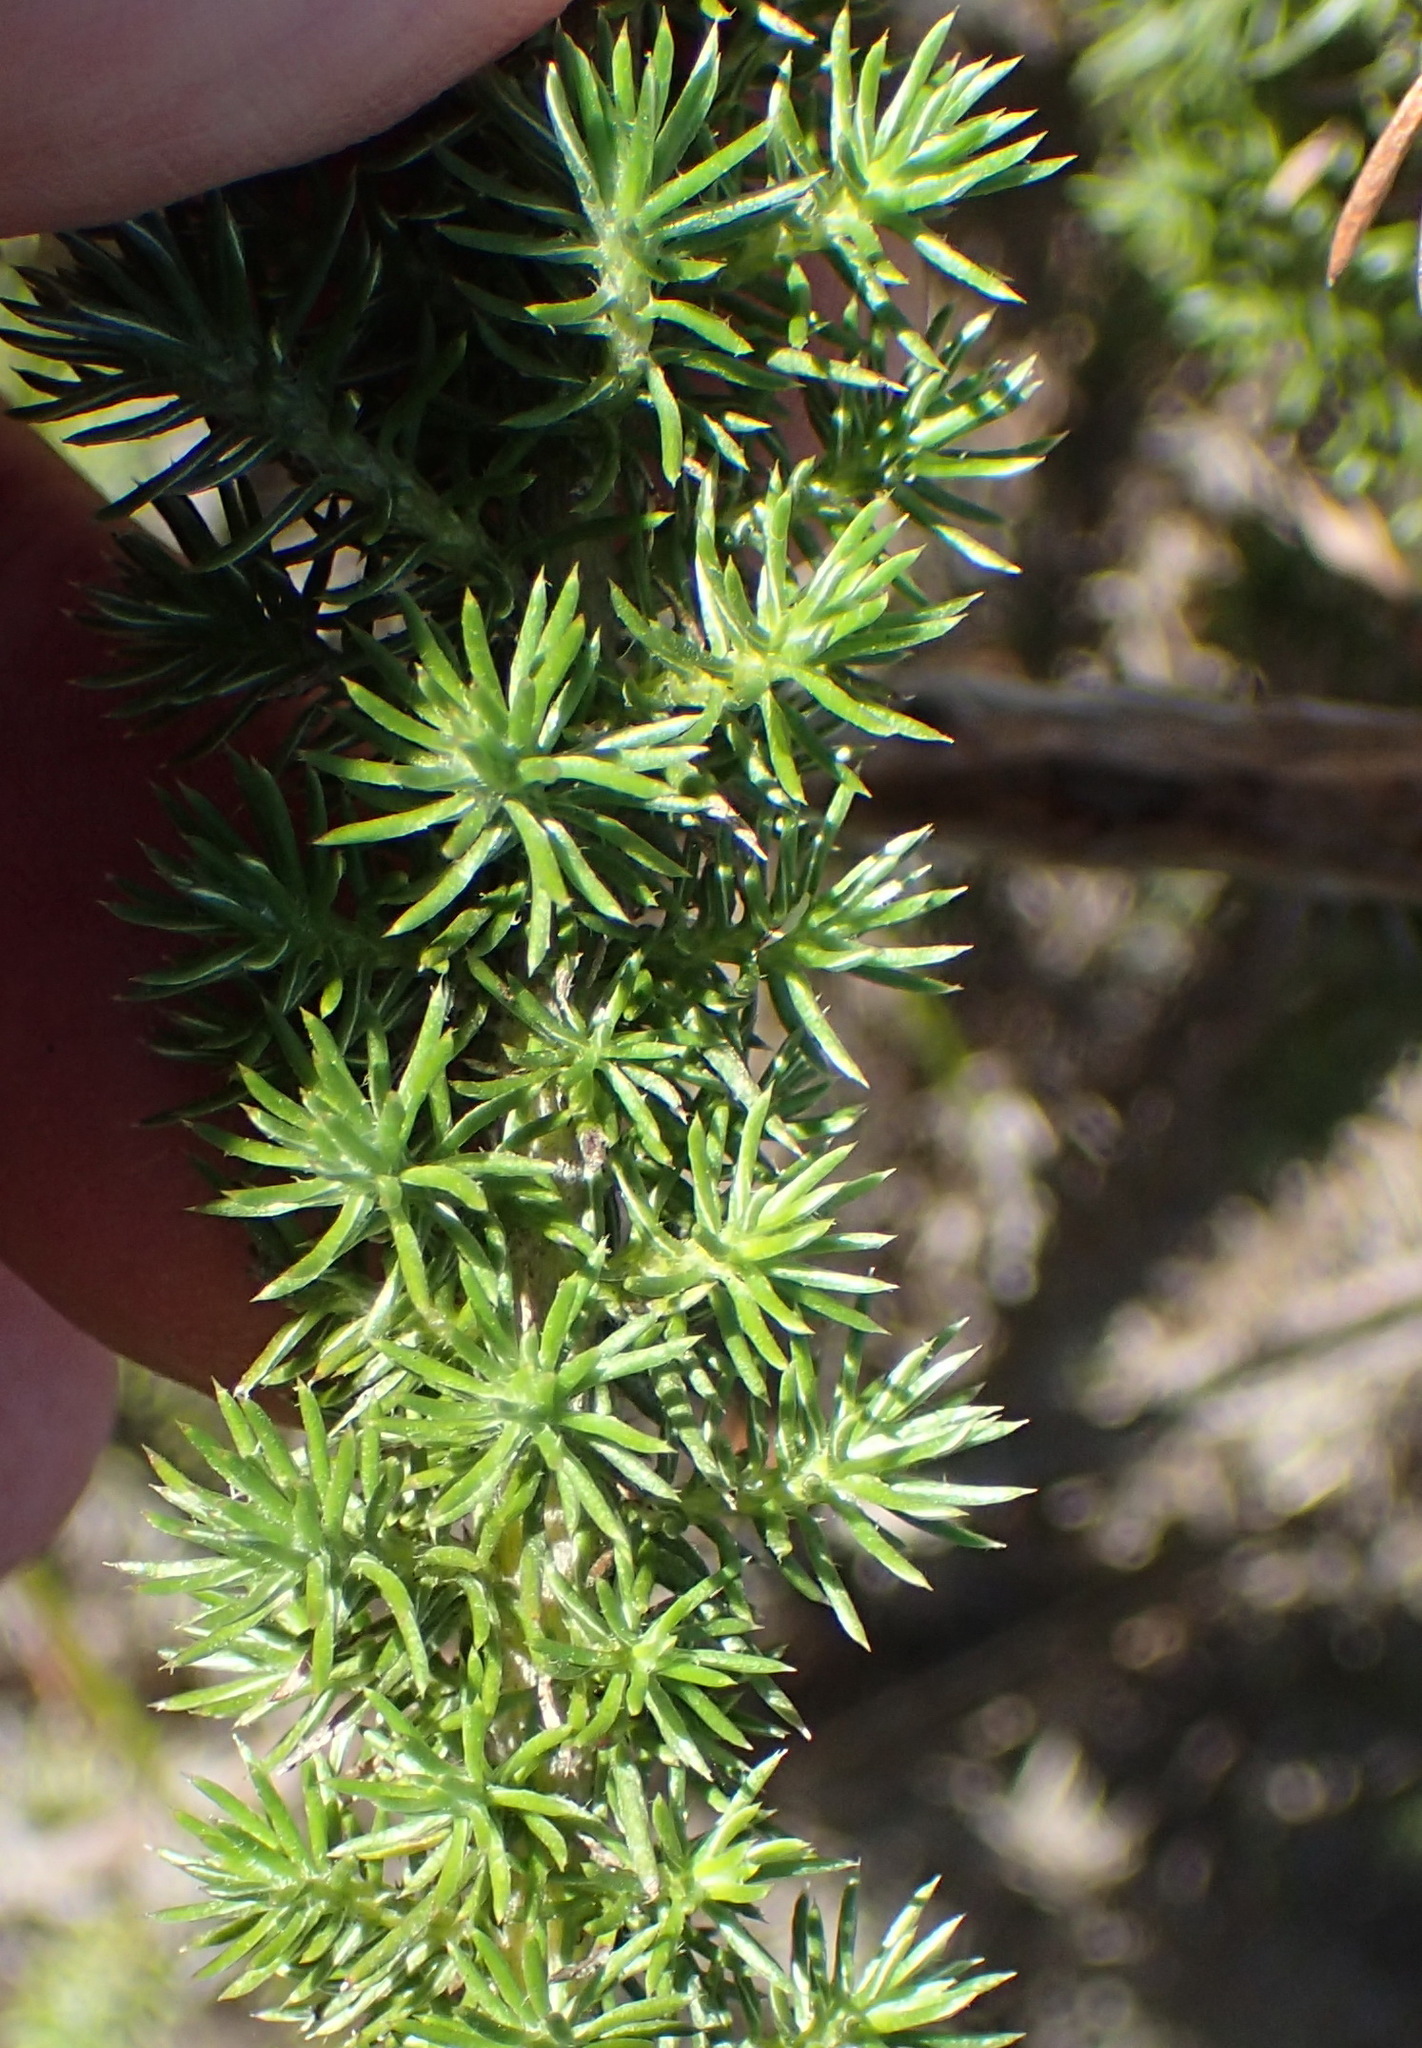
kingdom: Plantae
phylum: Tracheophyta
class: Magnoliopsida
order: Asterales
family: Asteraceae
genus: Stoebe
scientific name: Stoebe alopecuroides
